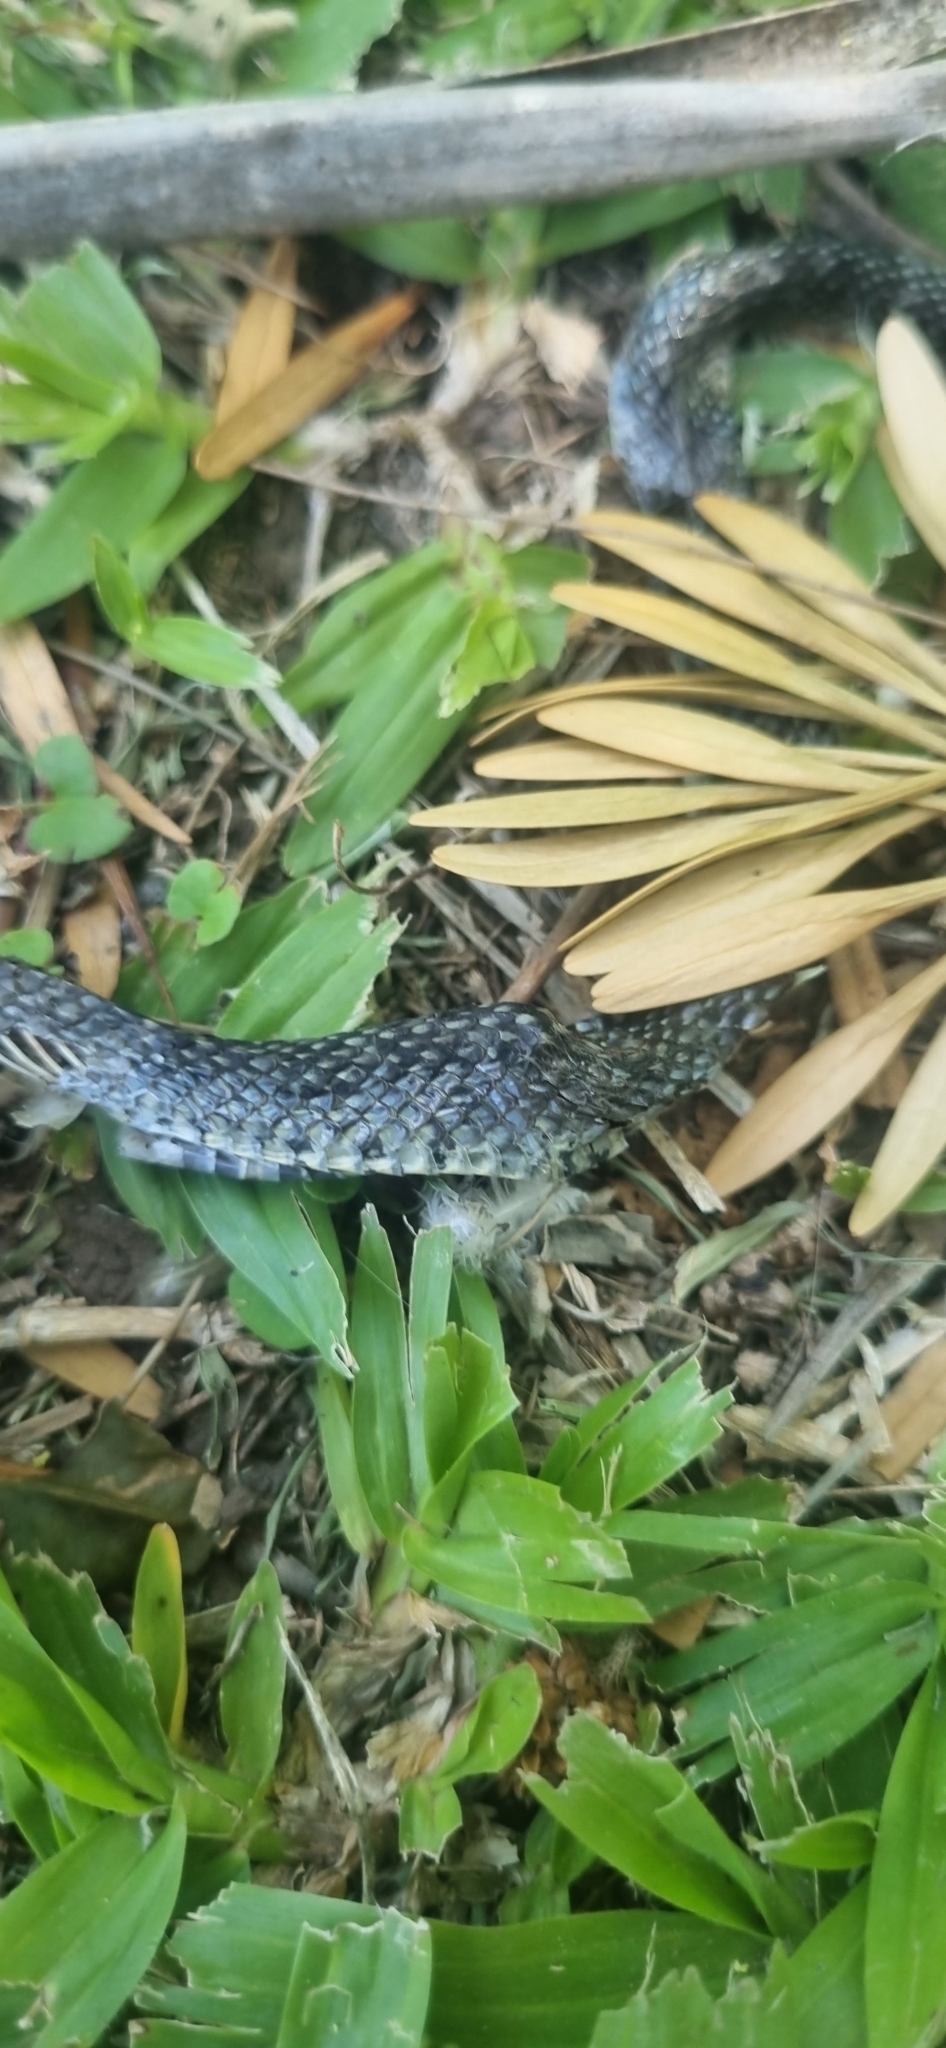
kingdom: Animalia
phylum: Chordata
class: Squamata
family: Colubridae
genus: Erythrolamprus
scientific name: Erythrolamprus poecilogyrus
